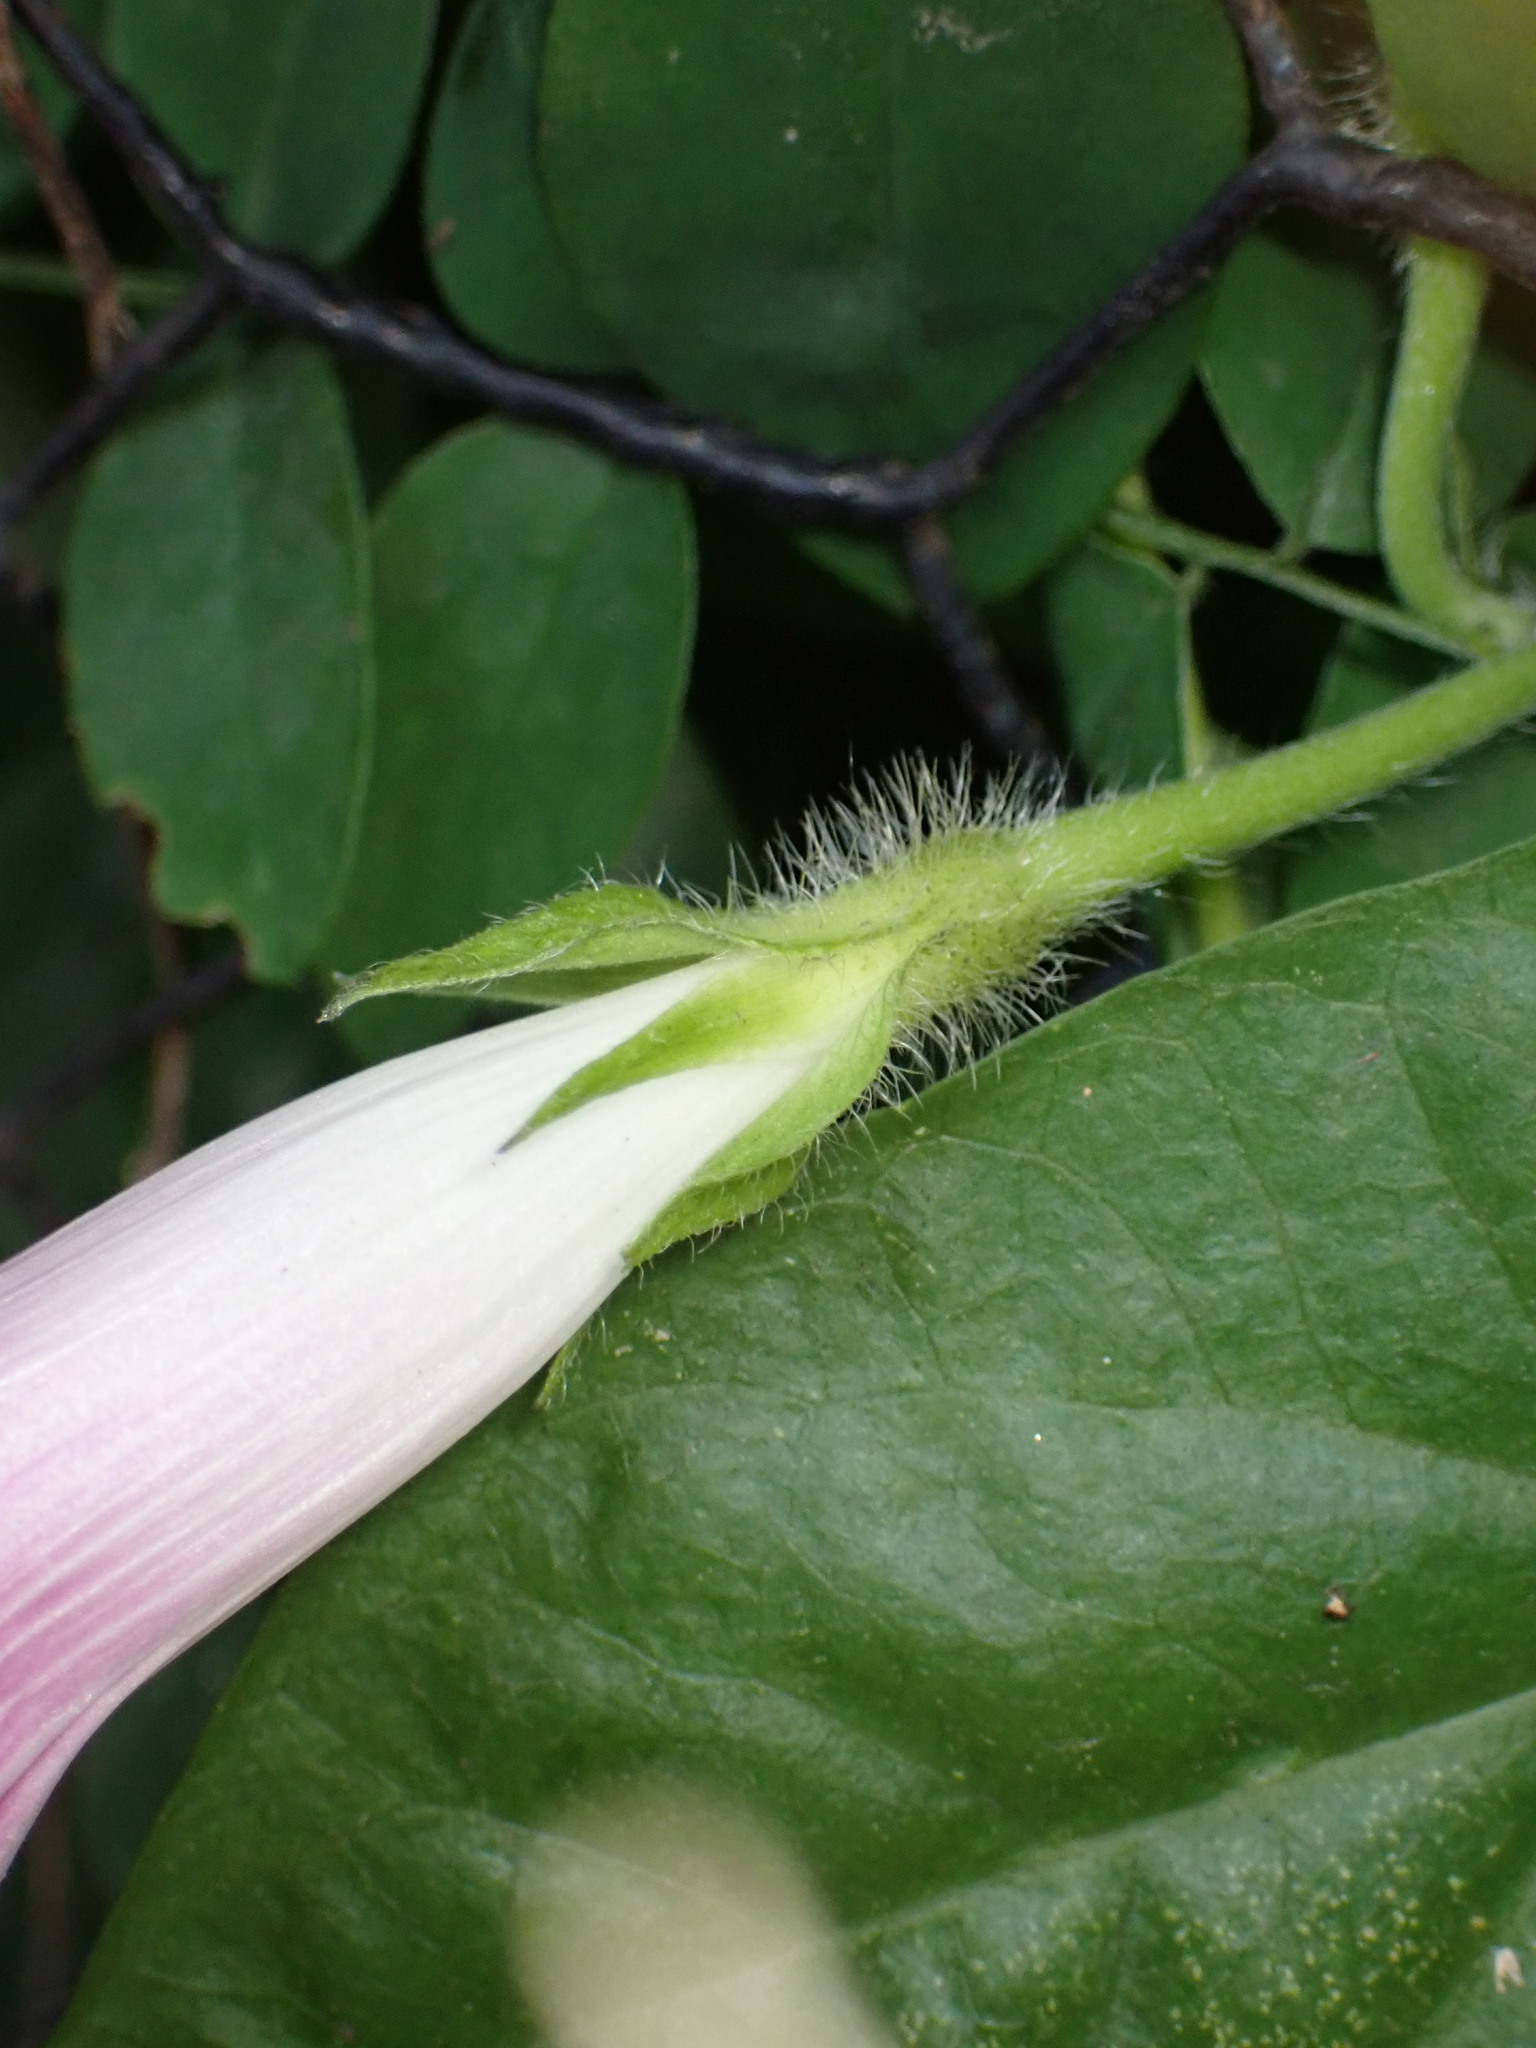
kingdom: Plantae
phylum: Tracheophyta
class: Magnoliopsida
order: Solanales
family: Convolvulaceae
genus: Ipomoea
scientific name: Ipomoea purpurea
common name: Common morning-glory
